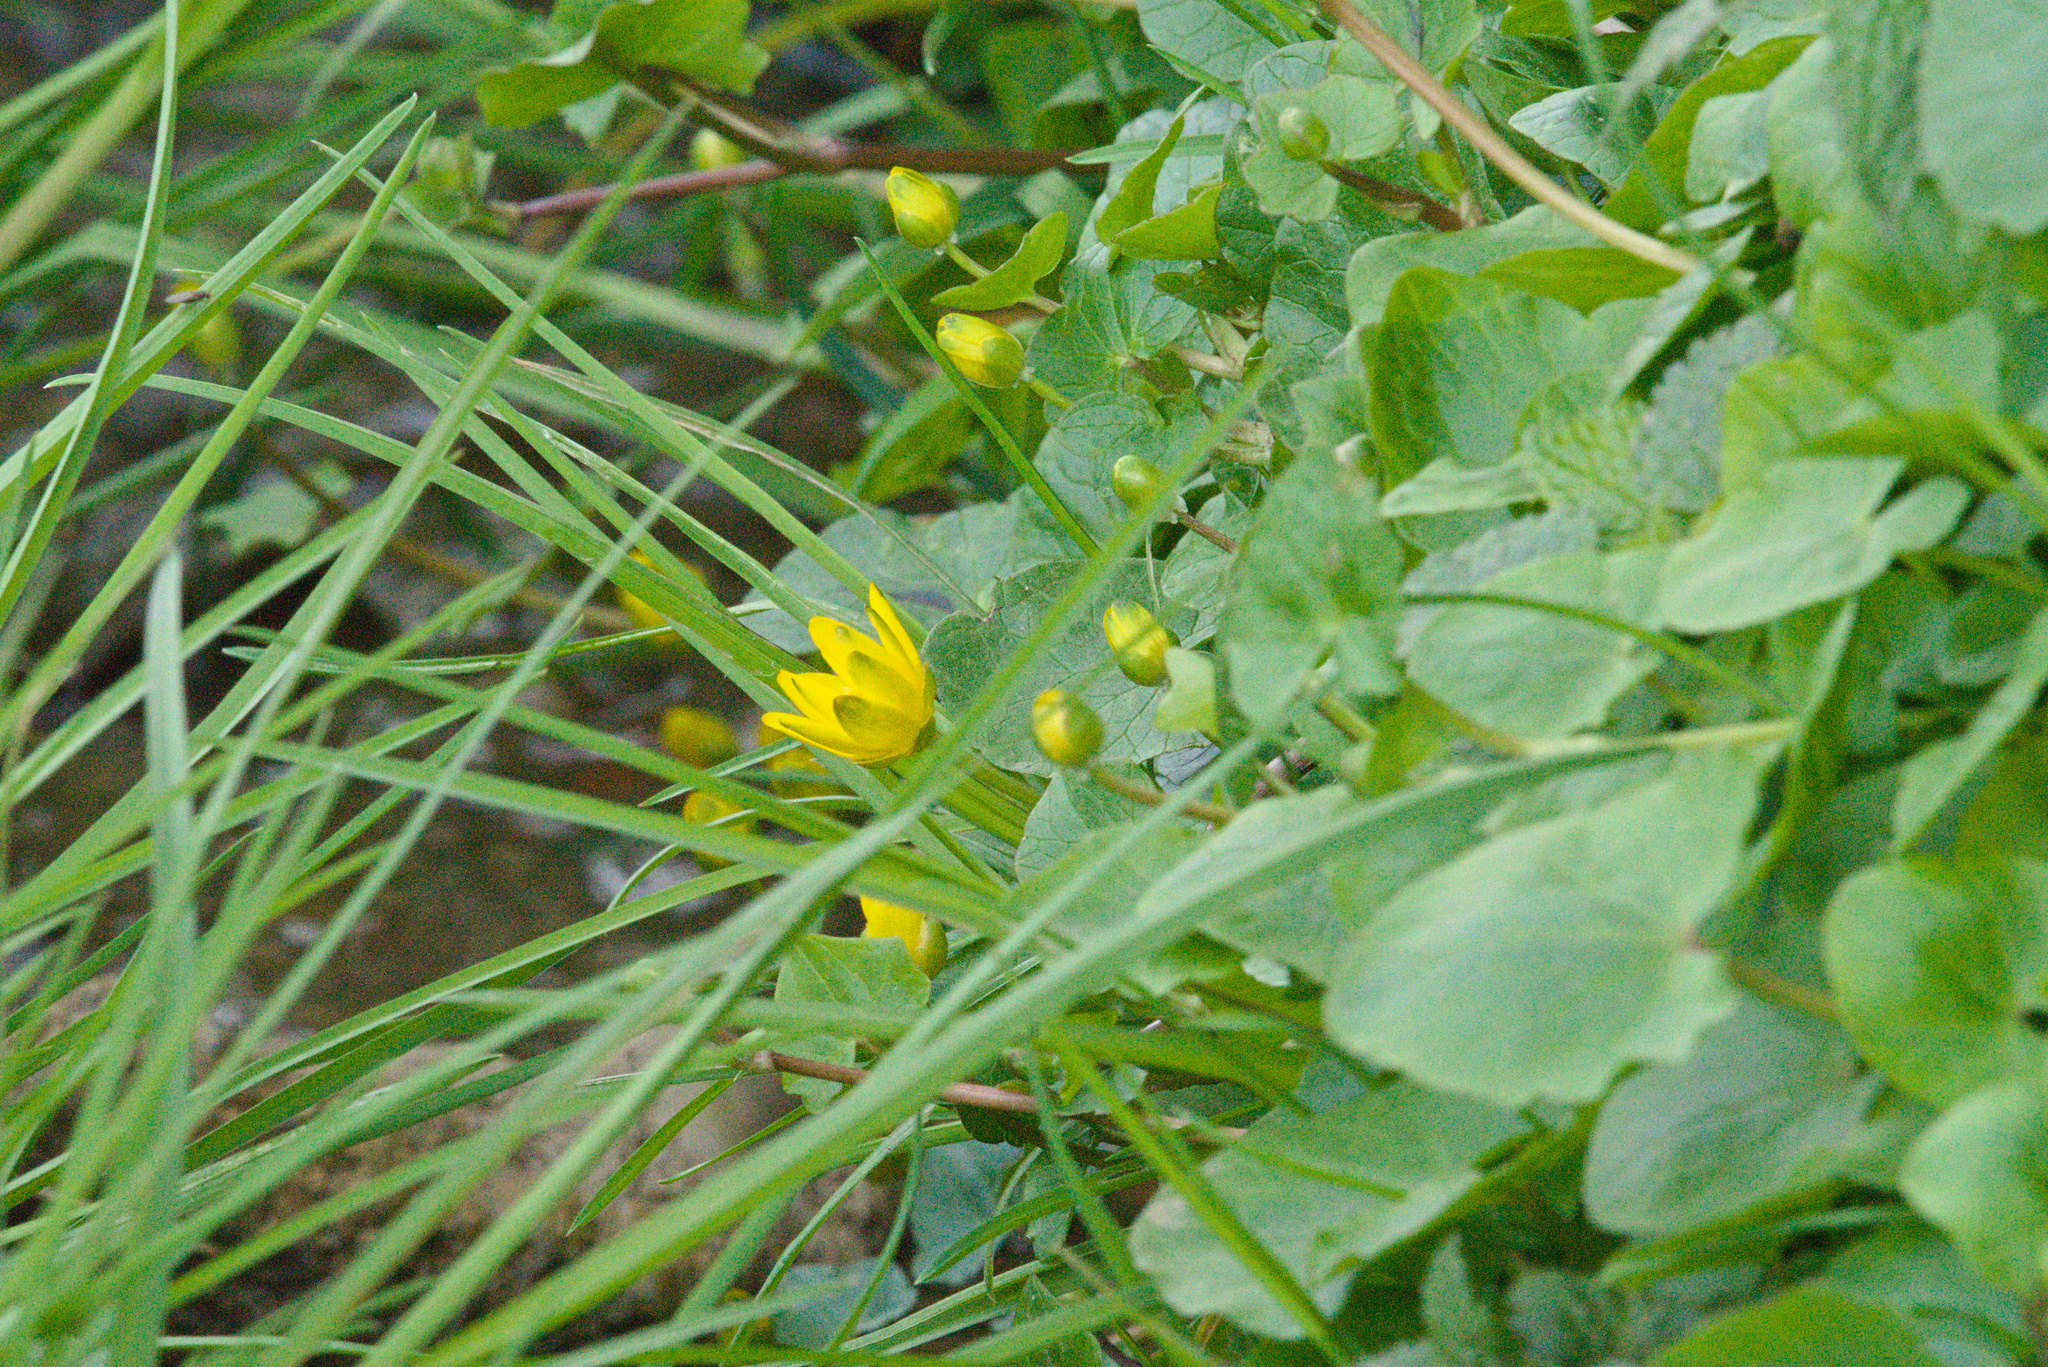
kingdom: Plantae
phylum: Tracheophyta
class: Magnoliopsida
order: Ranunculales
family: Ranunculaceae
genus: Ficaria
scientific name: Ficaria verna
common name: Lesser celandine
